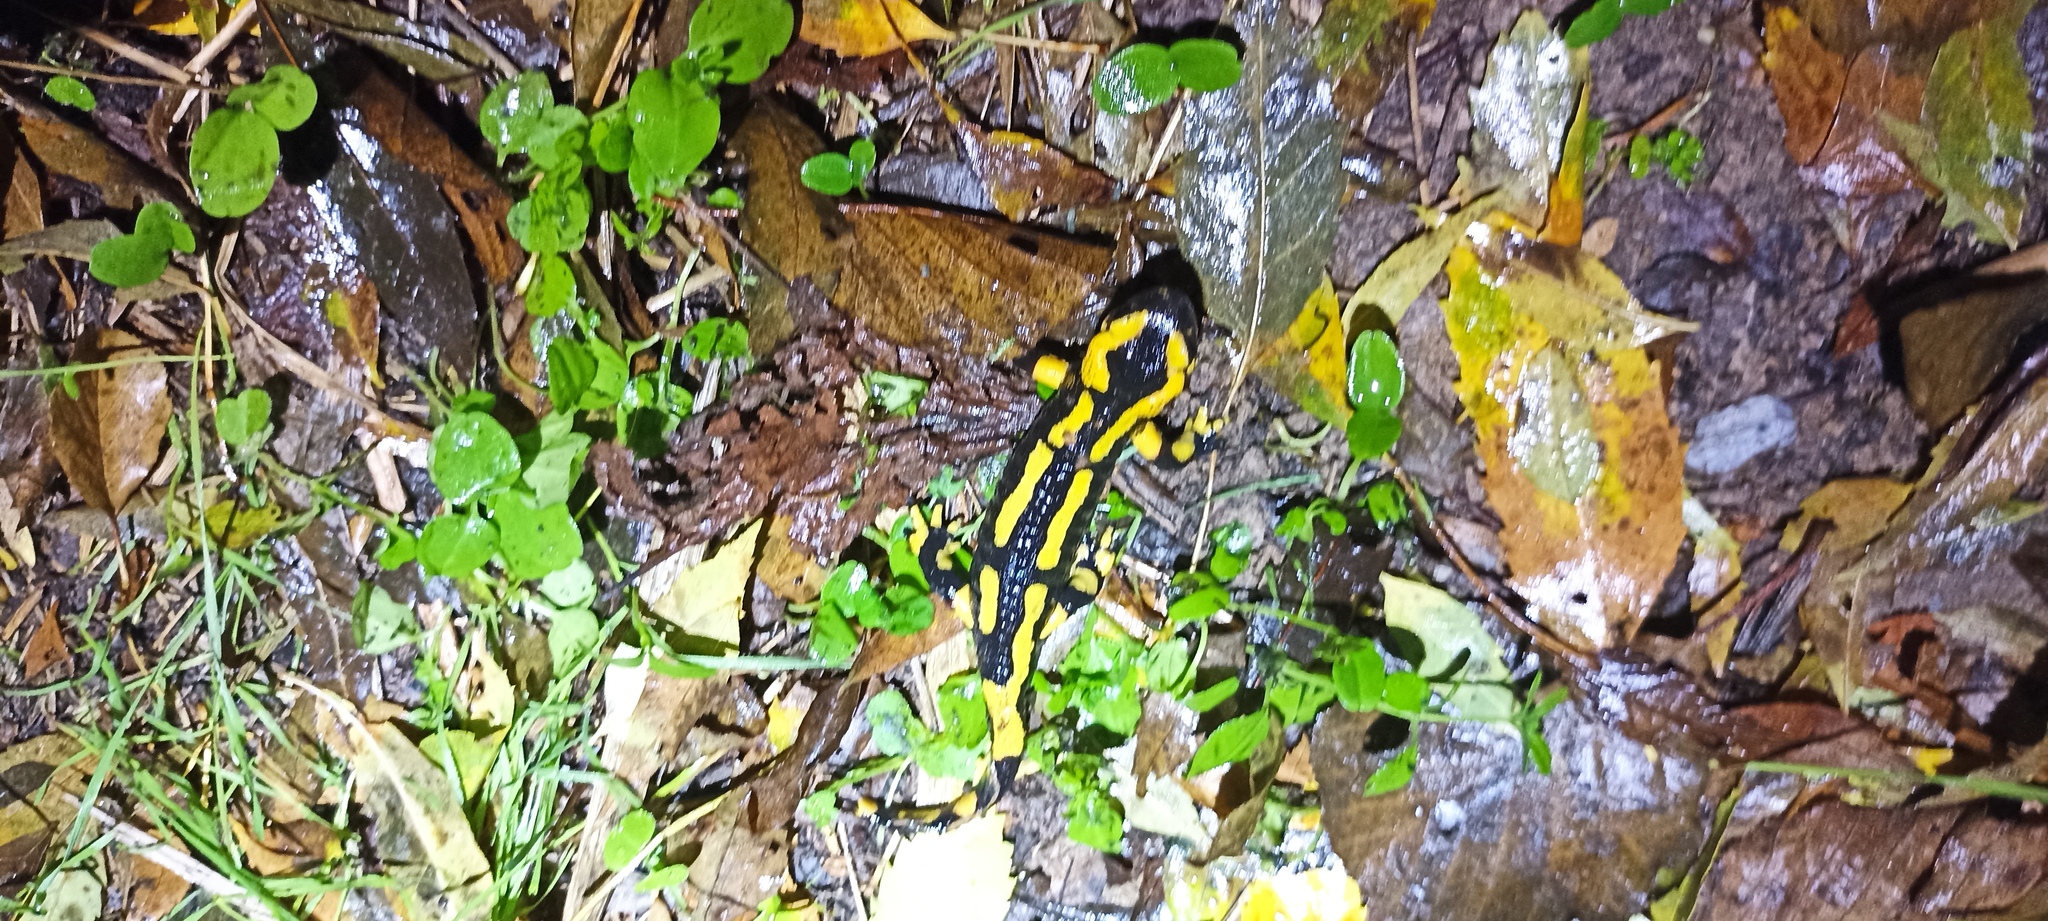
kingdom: Animalia
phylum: Chordata
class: Amphibia
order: Caudata
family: Salamandridae
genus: Salamandra
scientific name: Salamandra salamandra
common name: Fire salamander
